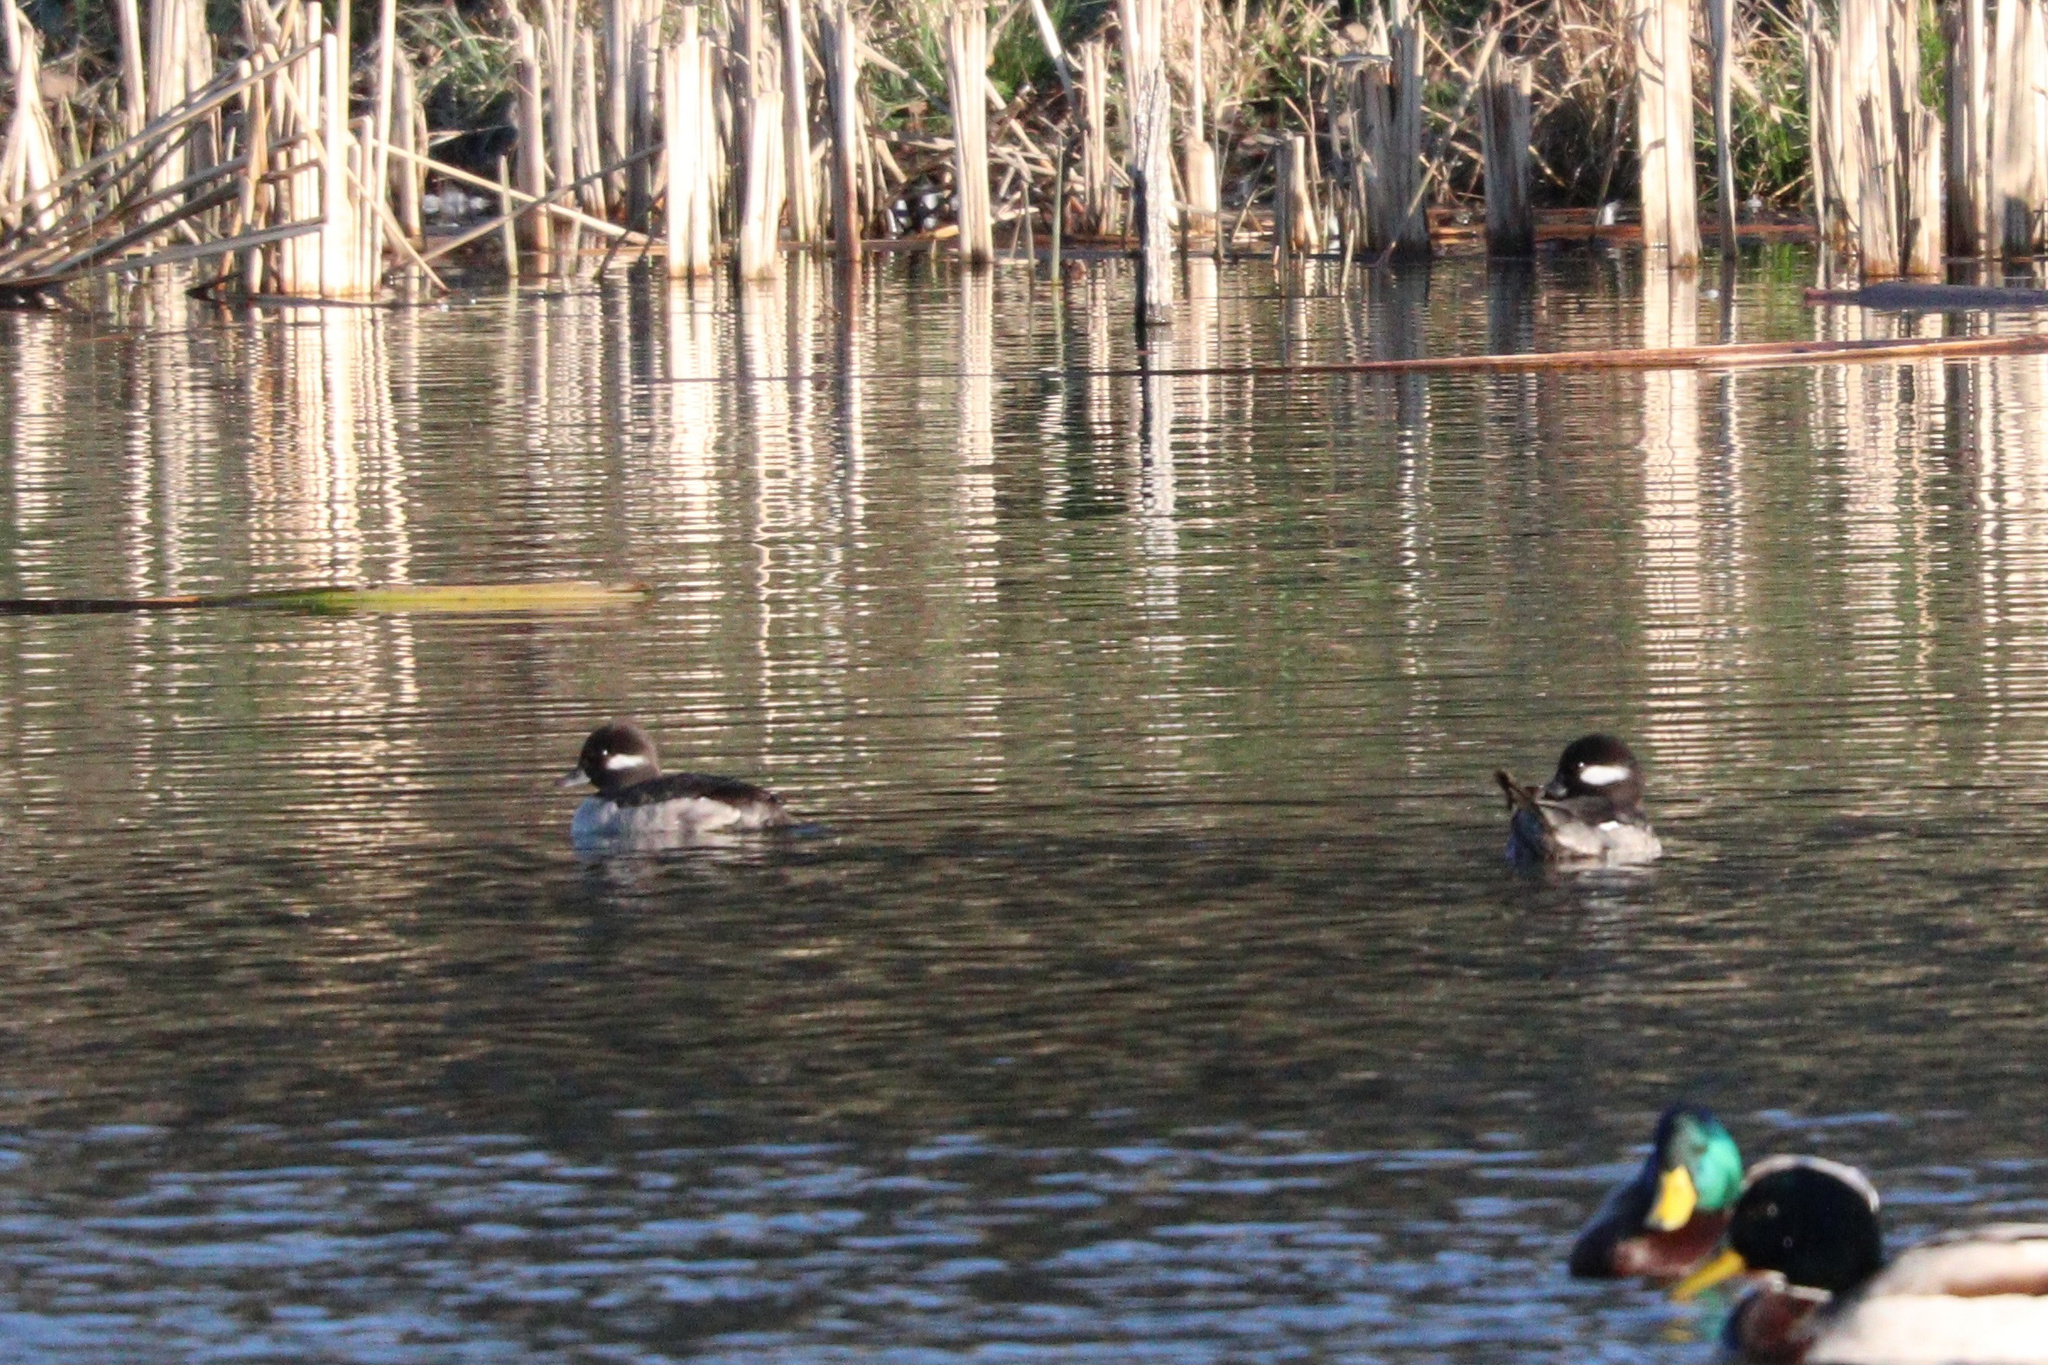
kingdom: Animalia
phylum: Chordata
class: Aves
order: Anseriformes
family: Anatidae
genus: Bucephala
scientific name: Bucephala albeola
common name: Bufflehead
